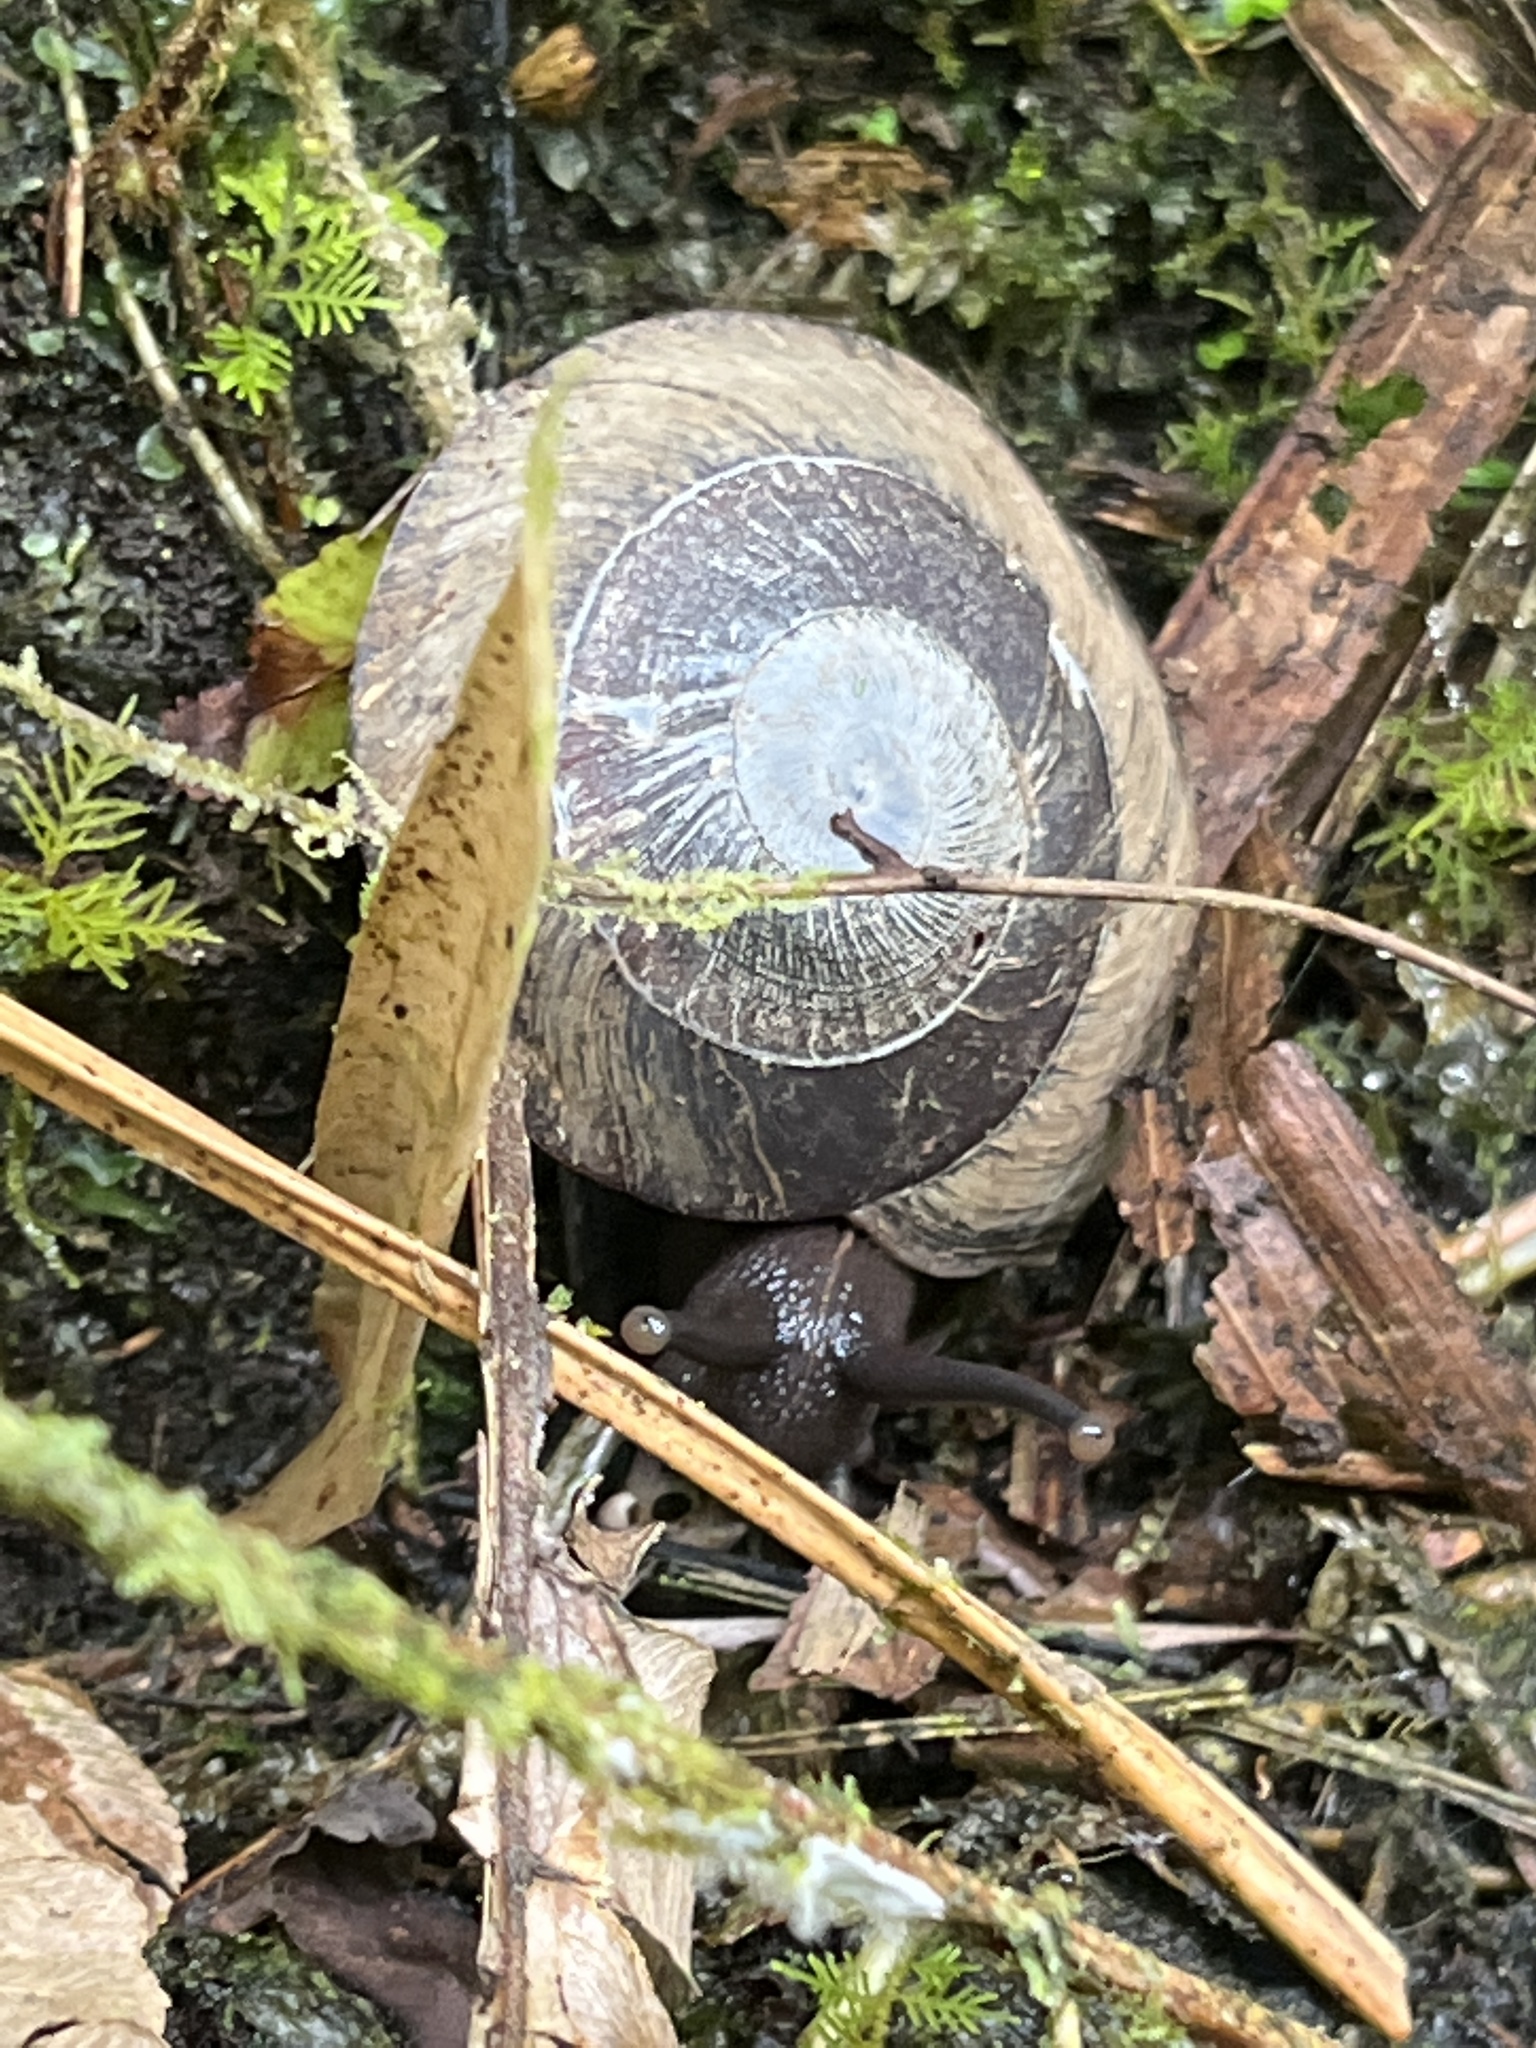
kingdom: Animalia
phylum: Mollusca
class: Gastropoda
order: Stylommatophora
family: Solaropsidae
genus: Caracolus
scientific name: Caracolus carocolla
